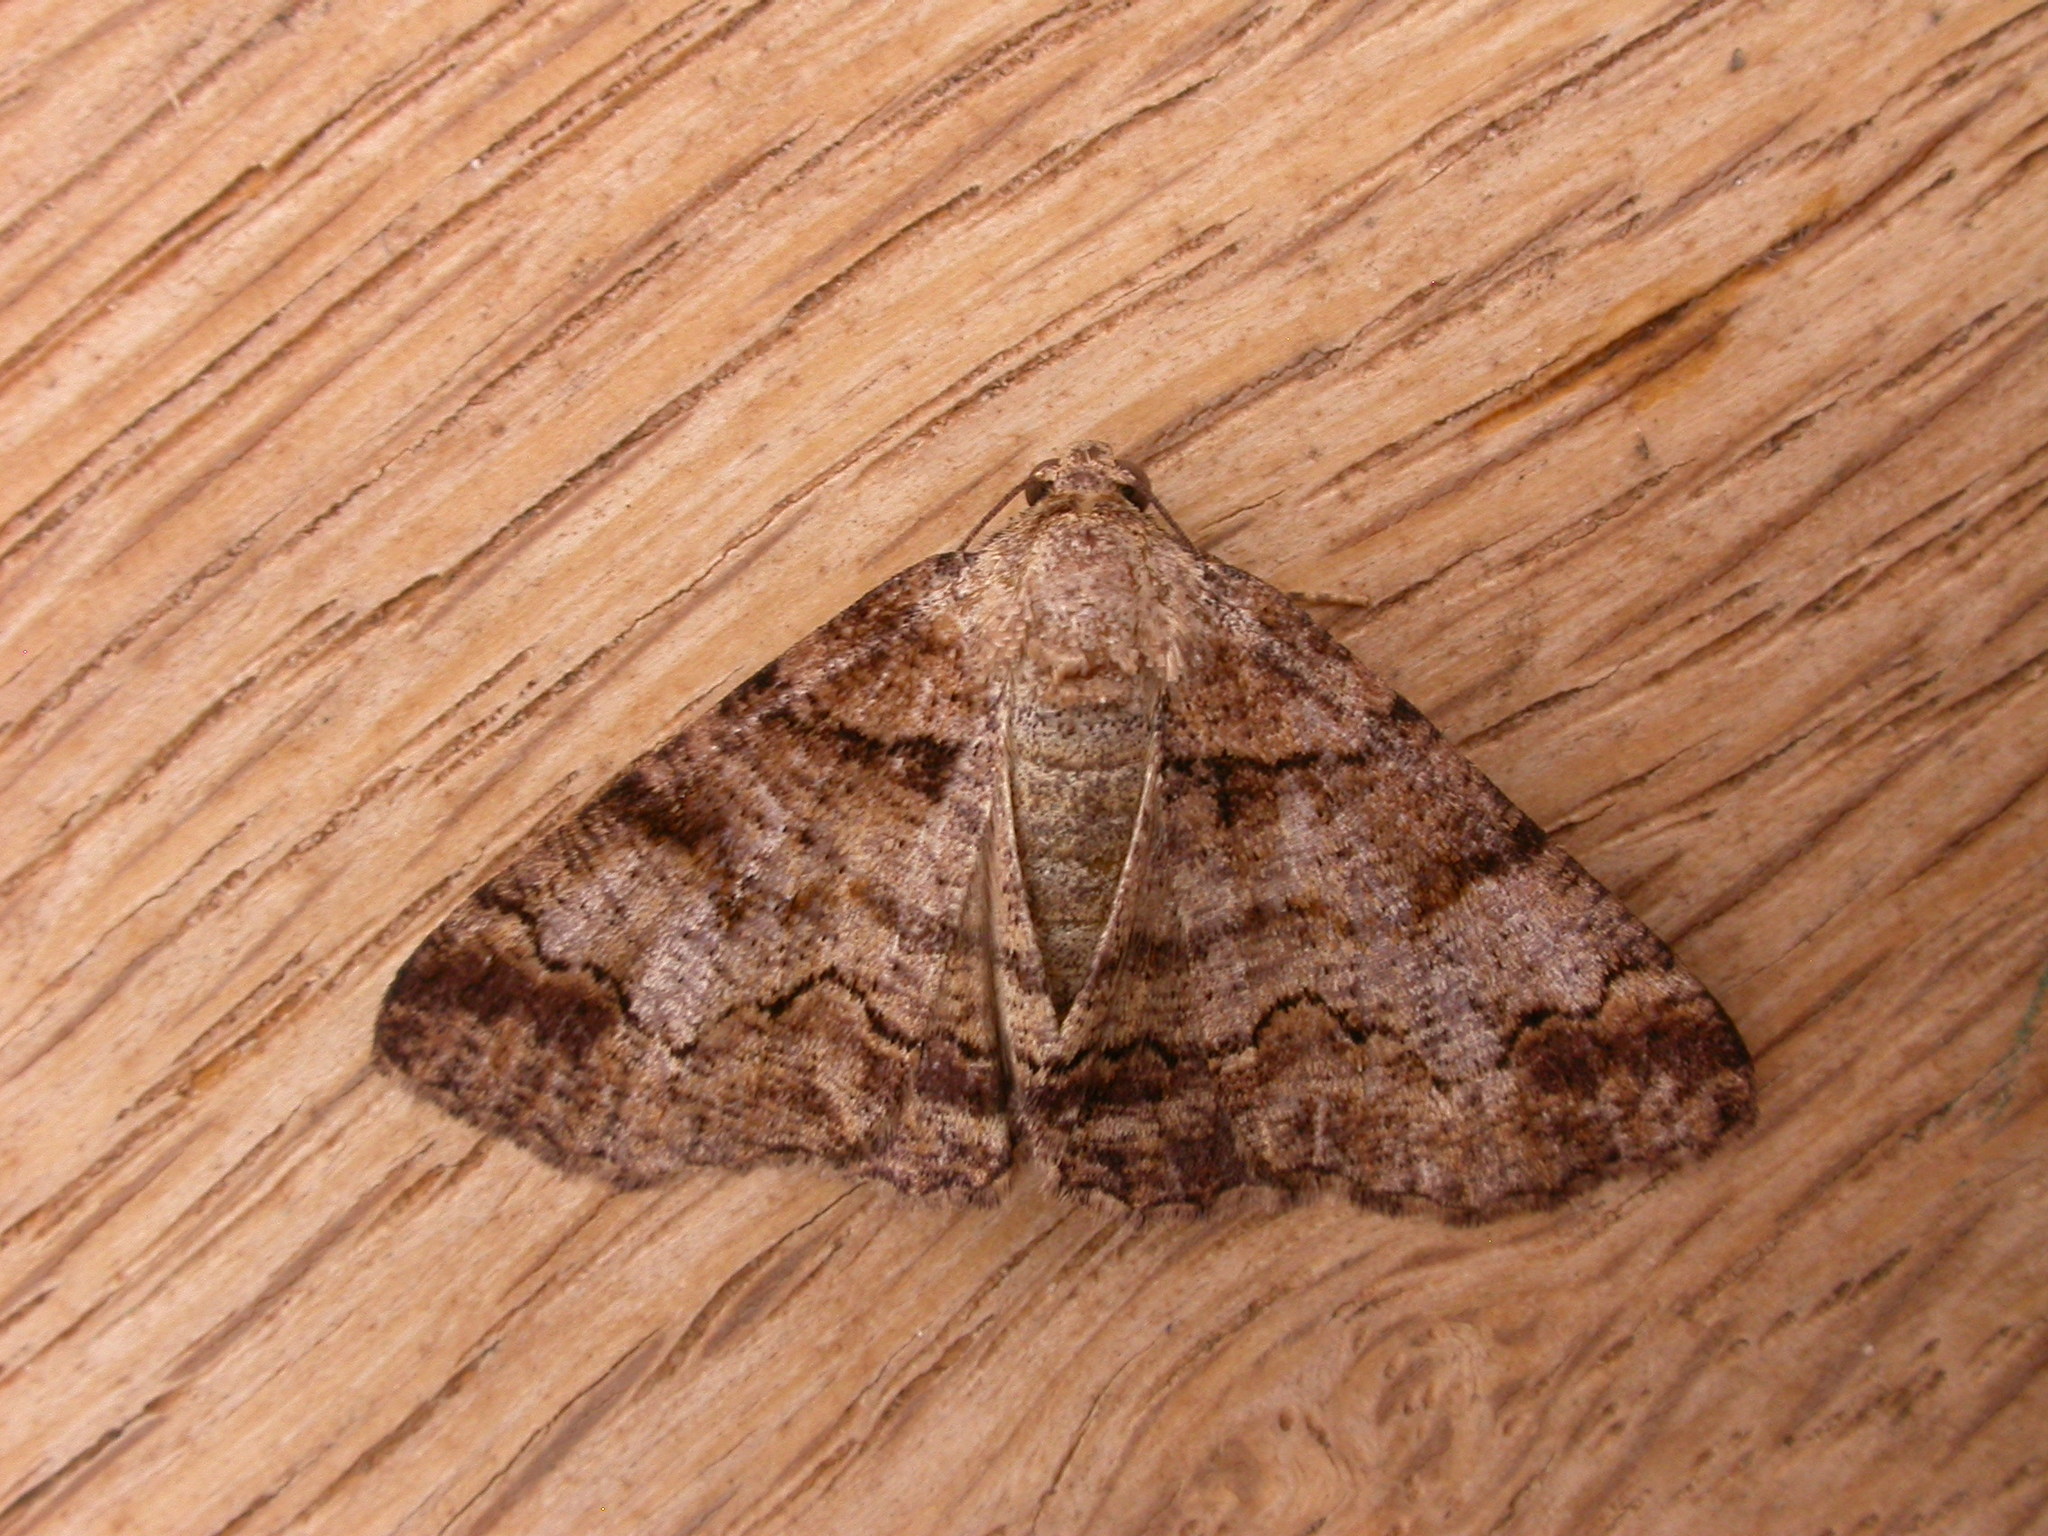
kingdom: Animalia
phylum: Arthropoda
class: Insecta
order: Lepidoptera
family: Geometridae
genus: Cryphaea
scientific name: Cryphaea xylina
